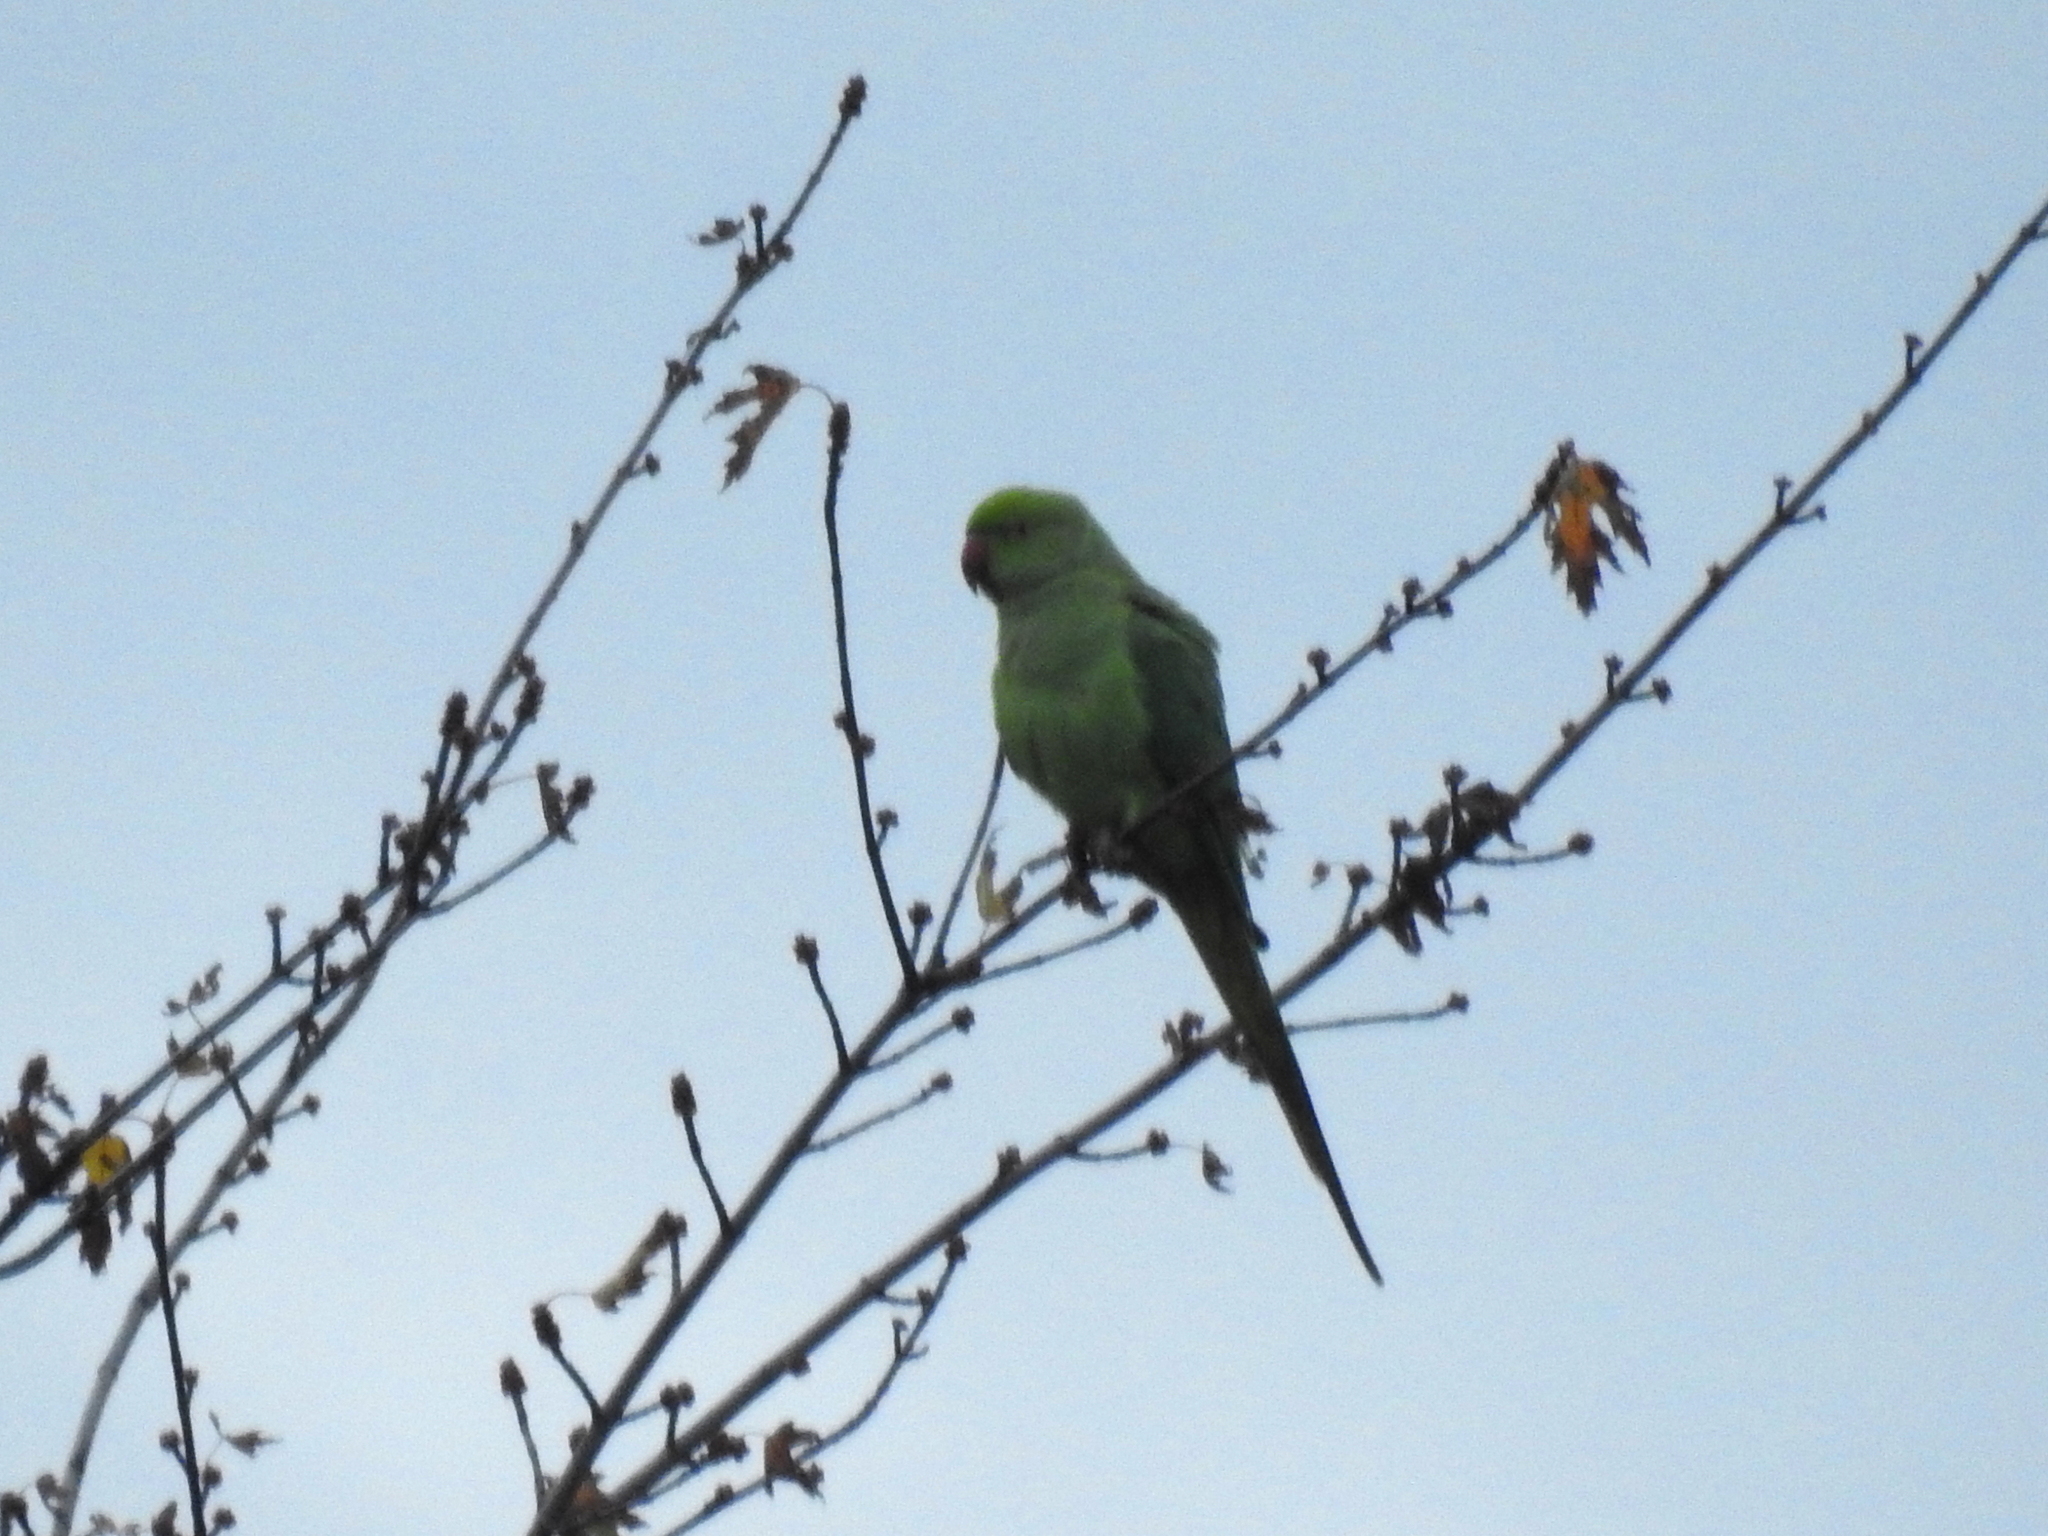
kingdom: Animalia
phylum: Chordata
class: Aves
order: Psittaciformes
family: Psittacidae
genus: Psittacula
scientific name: Psittacula krameri
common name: Rose-ringed parakeet
